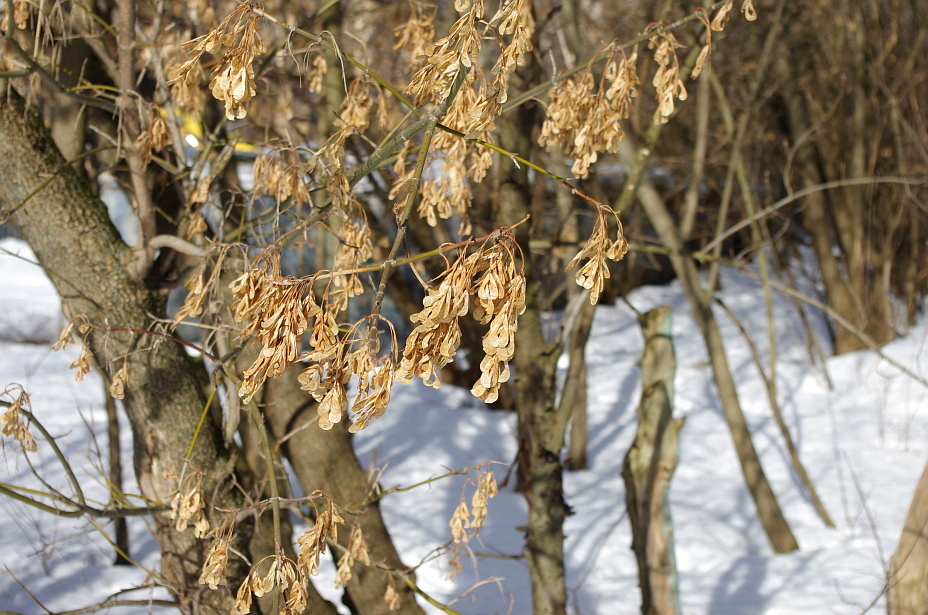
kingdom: Plantae
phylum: Tracheophyta
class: Magnoliopsida
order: Sapindales
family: Sapindaceae
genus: Acer
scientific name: Acer negundo
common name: Ashleaf maple
